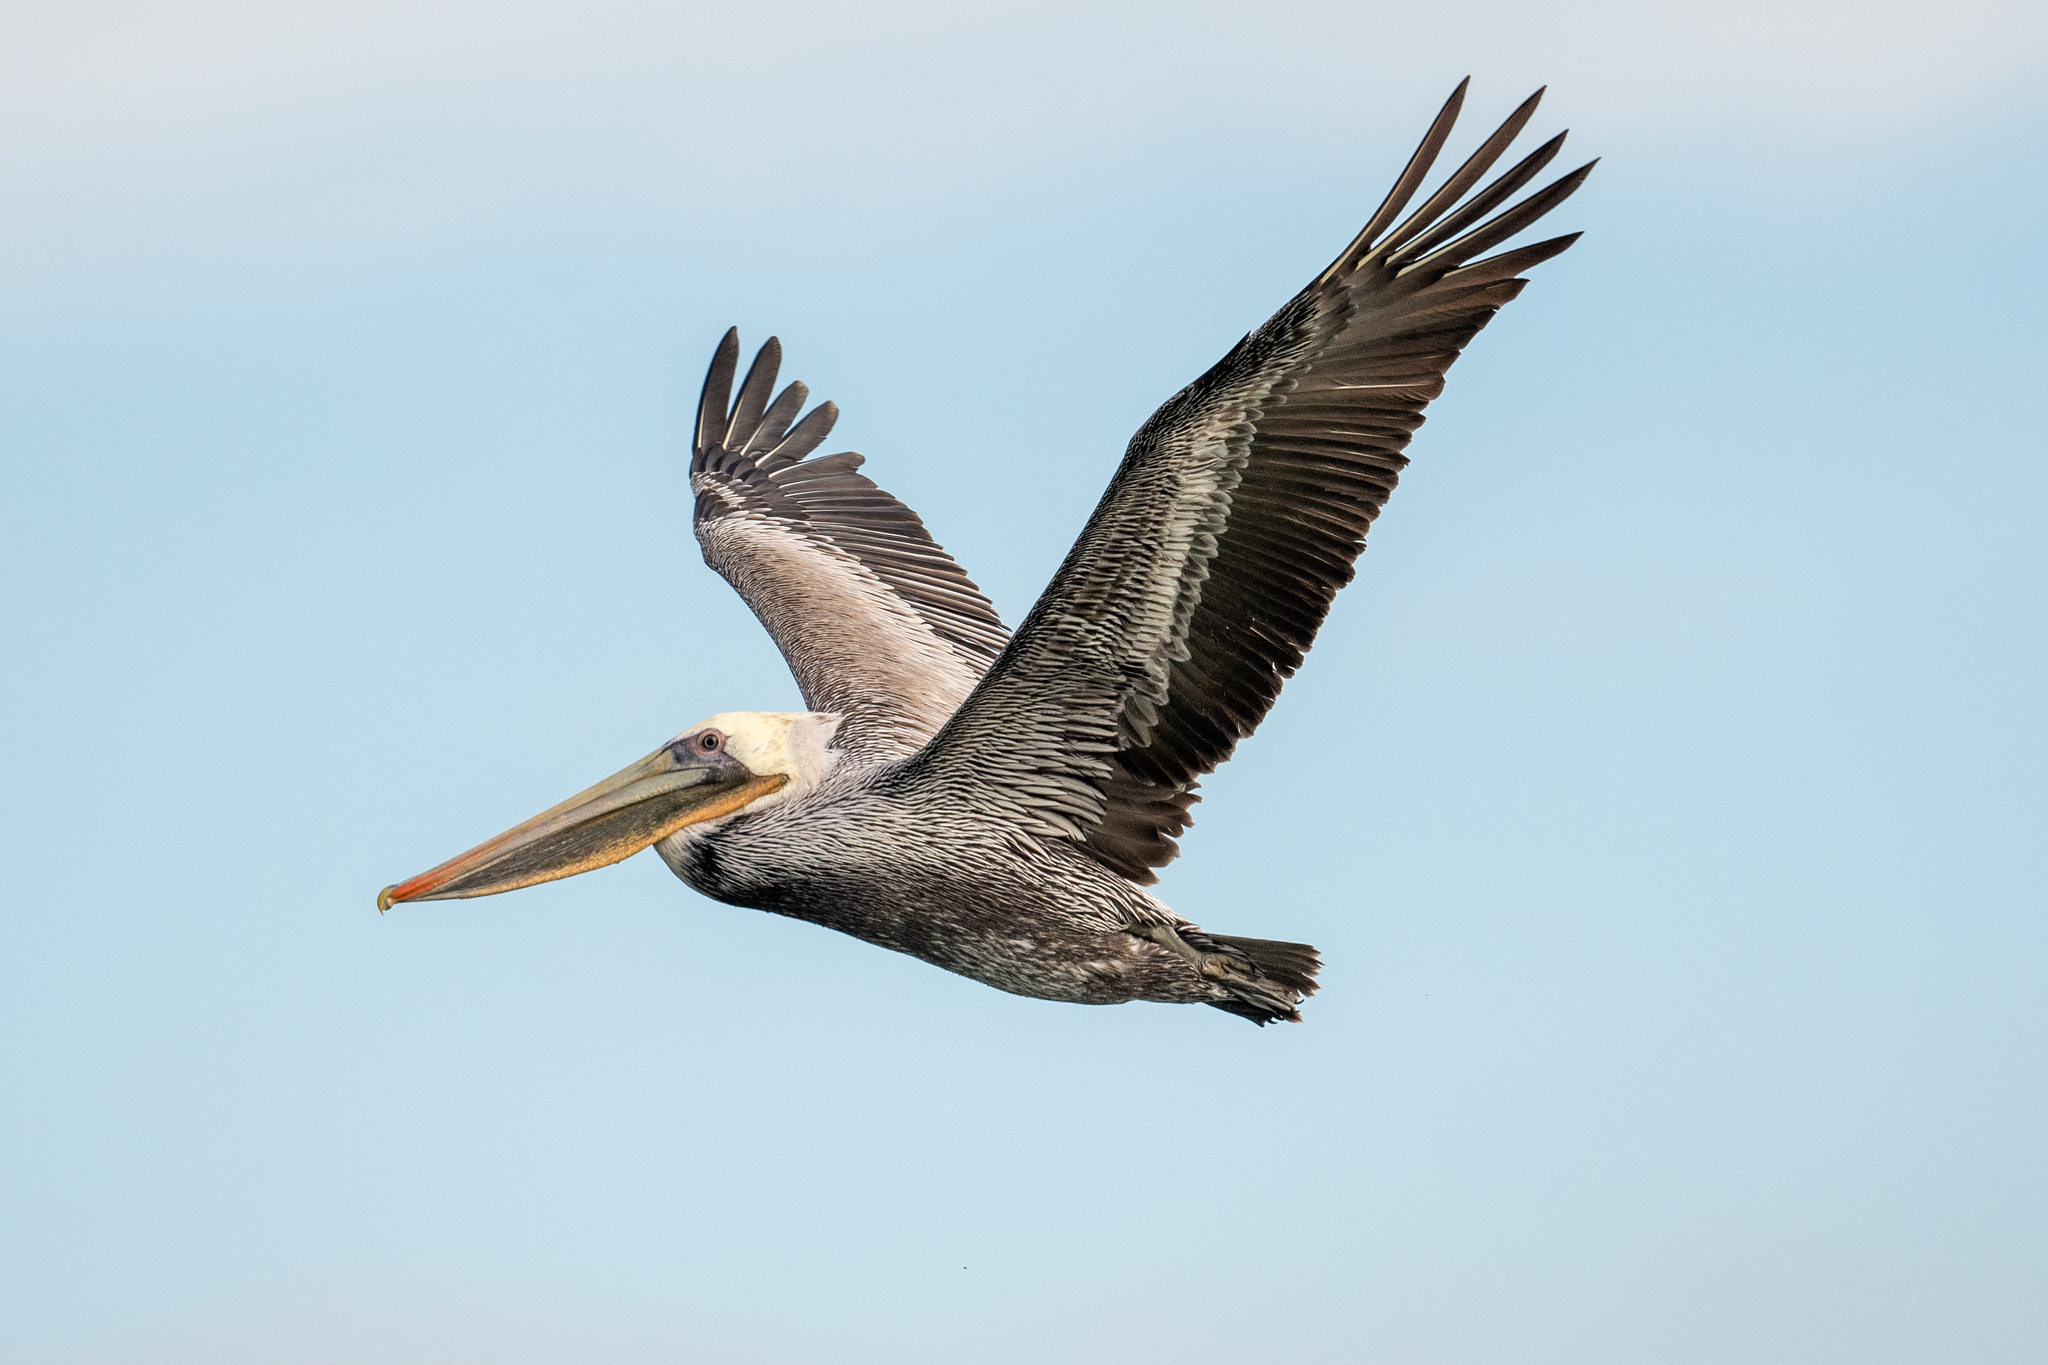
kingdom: Animalia
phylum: Chordata
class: Aves
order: Pelecaniformes
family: Pelecanidae
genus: Pelecanus
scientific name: Pelecanus occidentalis
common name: Brown pelican
